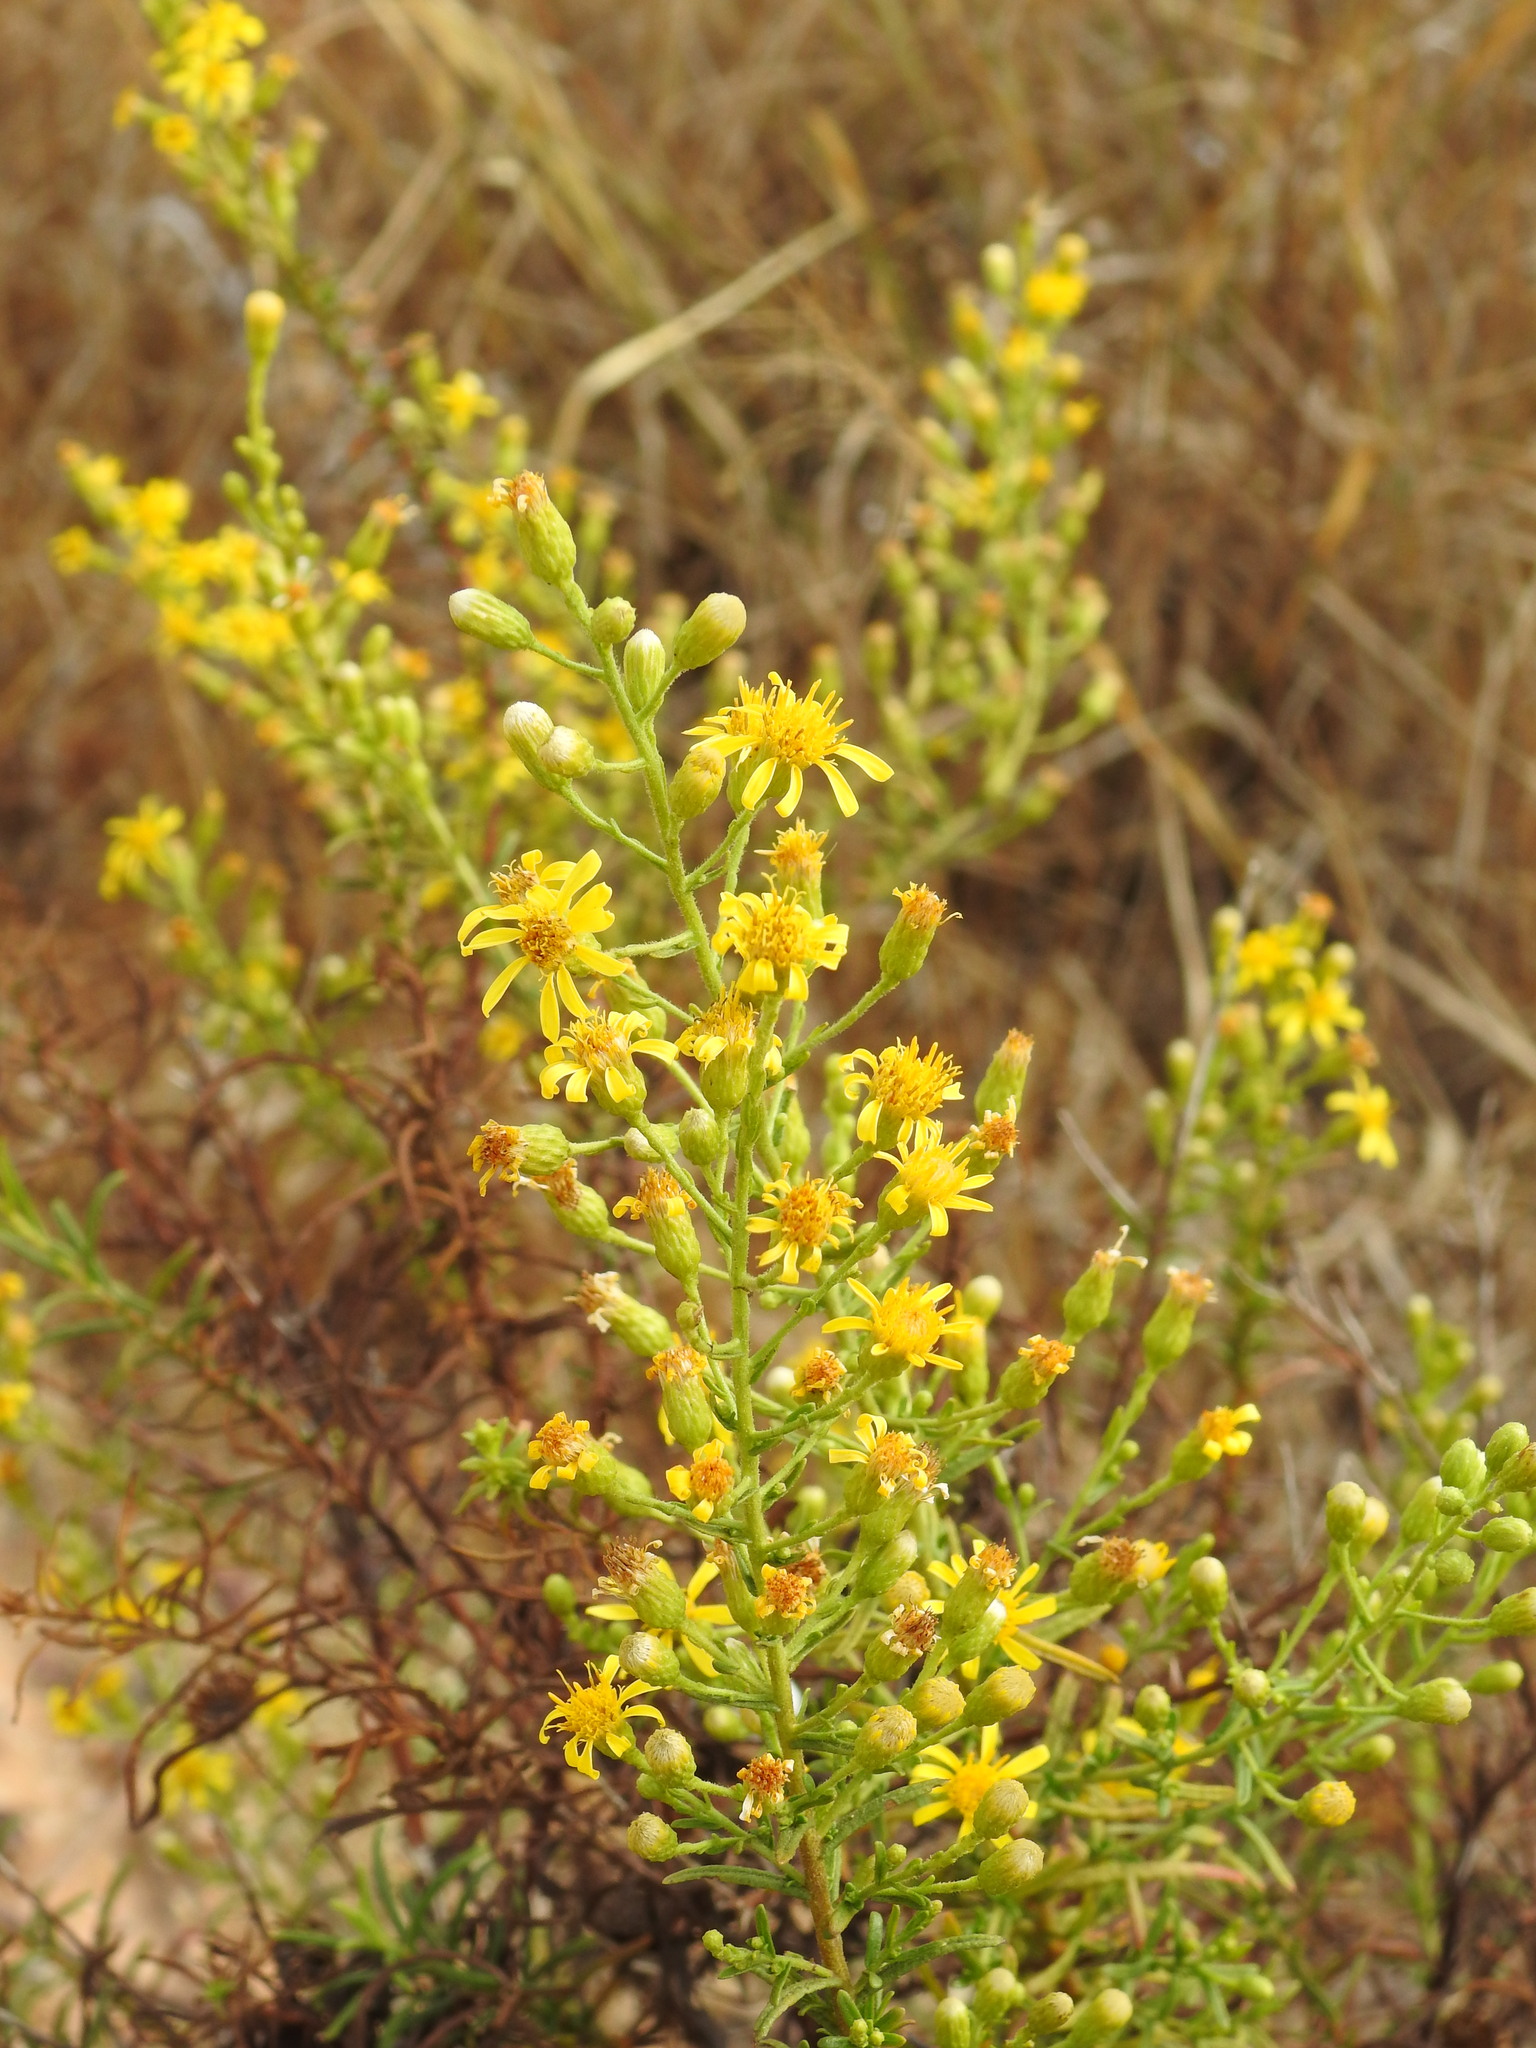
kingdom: Plantae
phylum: Tracheophyta
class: Magnoliopsida
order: Asterales
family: Asteraceae
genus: Dittrichia
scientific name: Dittrichia viscosa
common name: Woody fleabane
